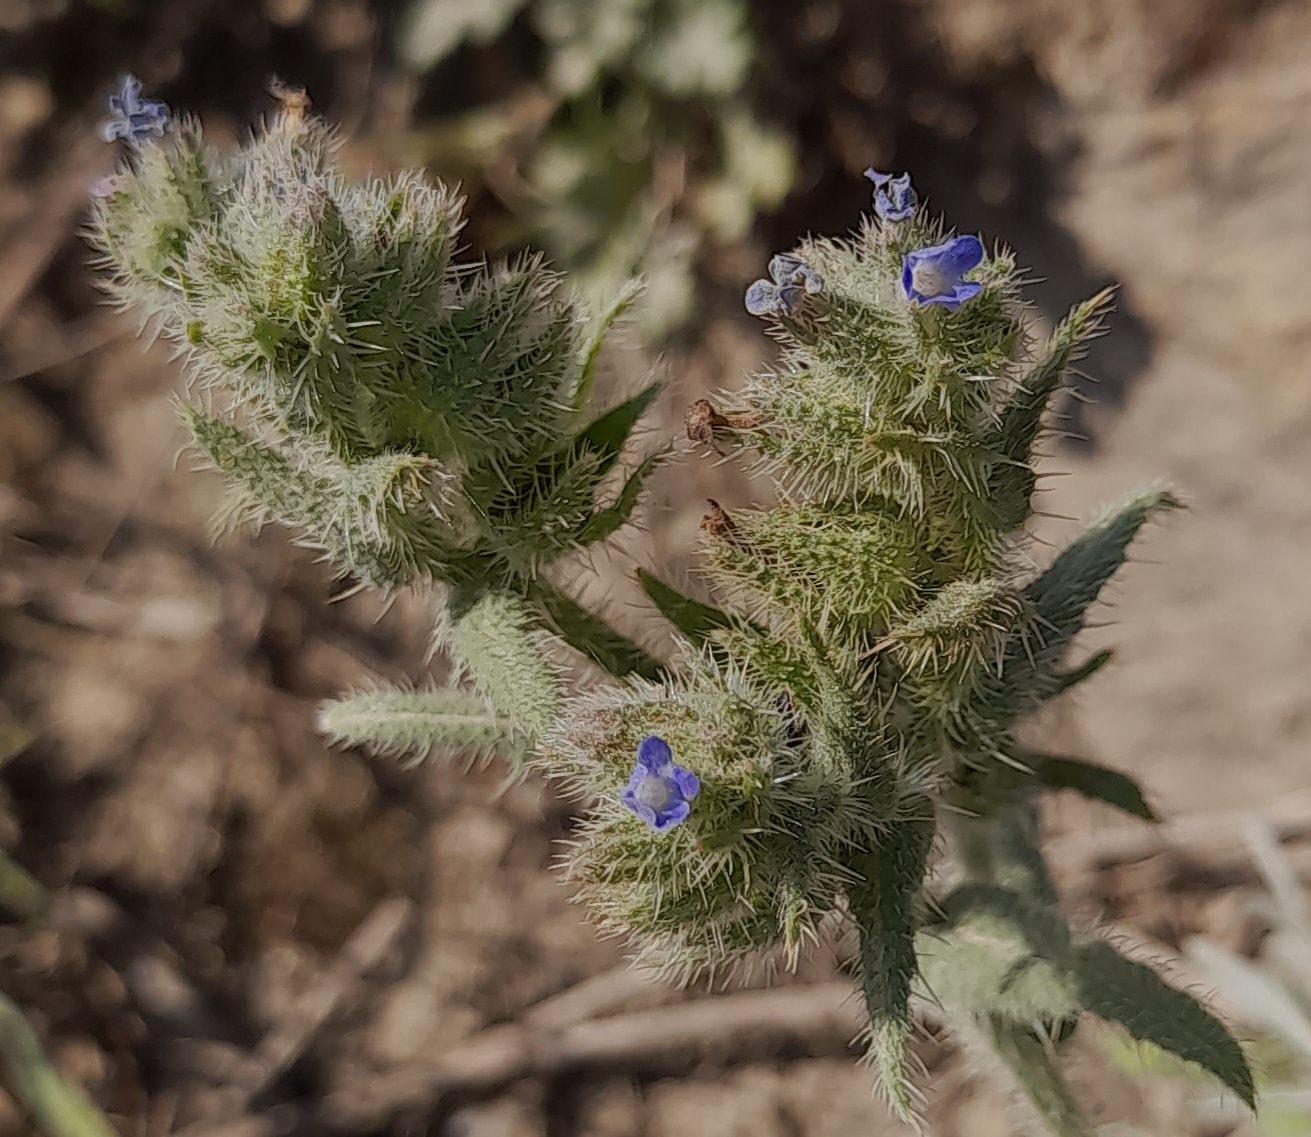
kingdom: Plantae
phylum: Tracheophyta
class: Magnoliopsida
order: Boraginales
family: Boraginaceae
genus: Lycopsis
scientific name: Lycopsis arvensis
